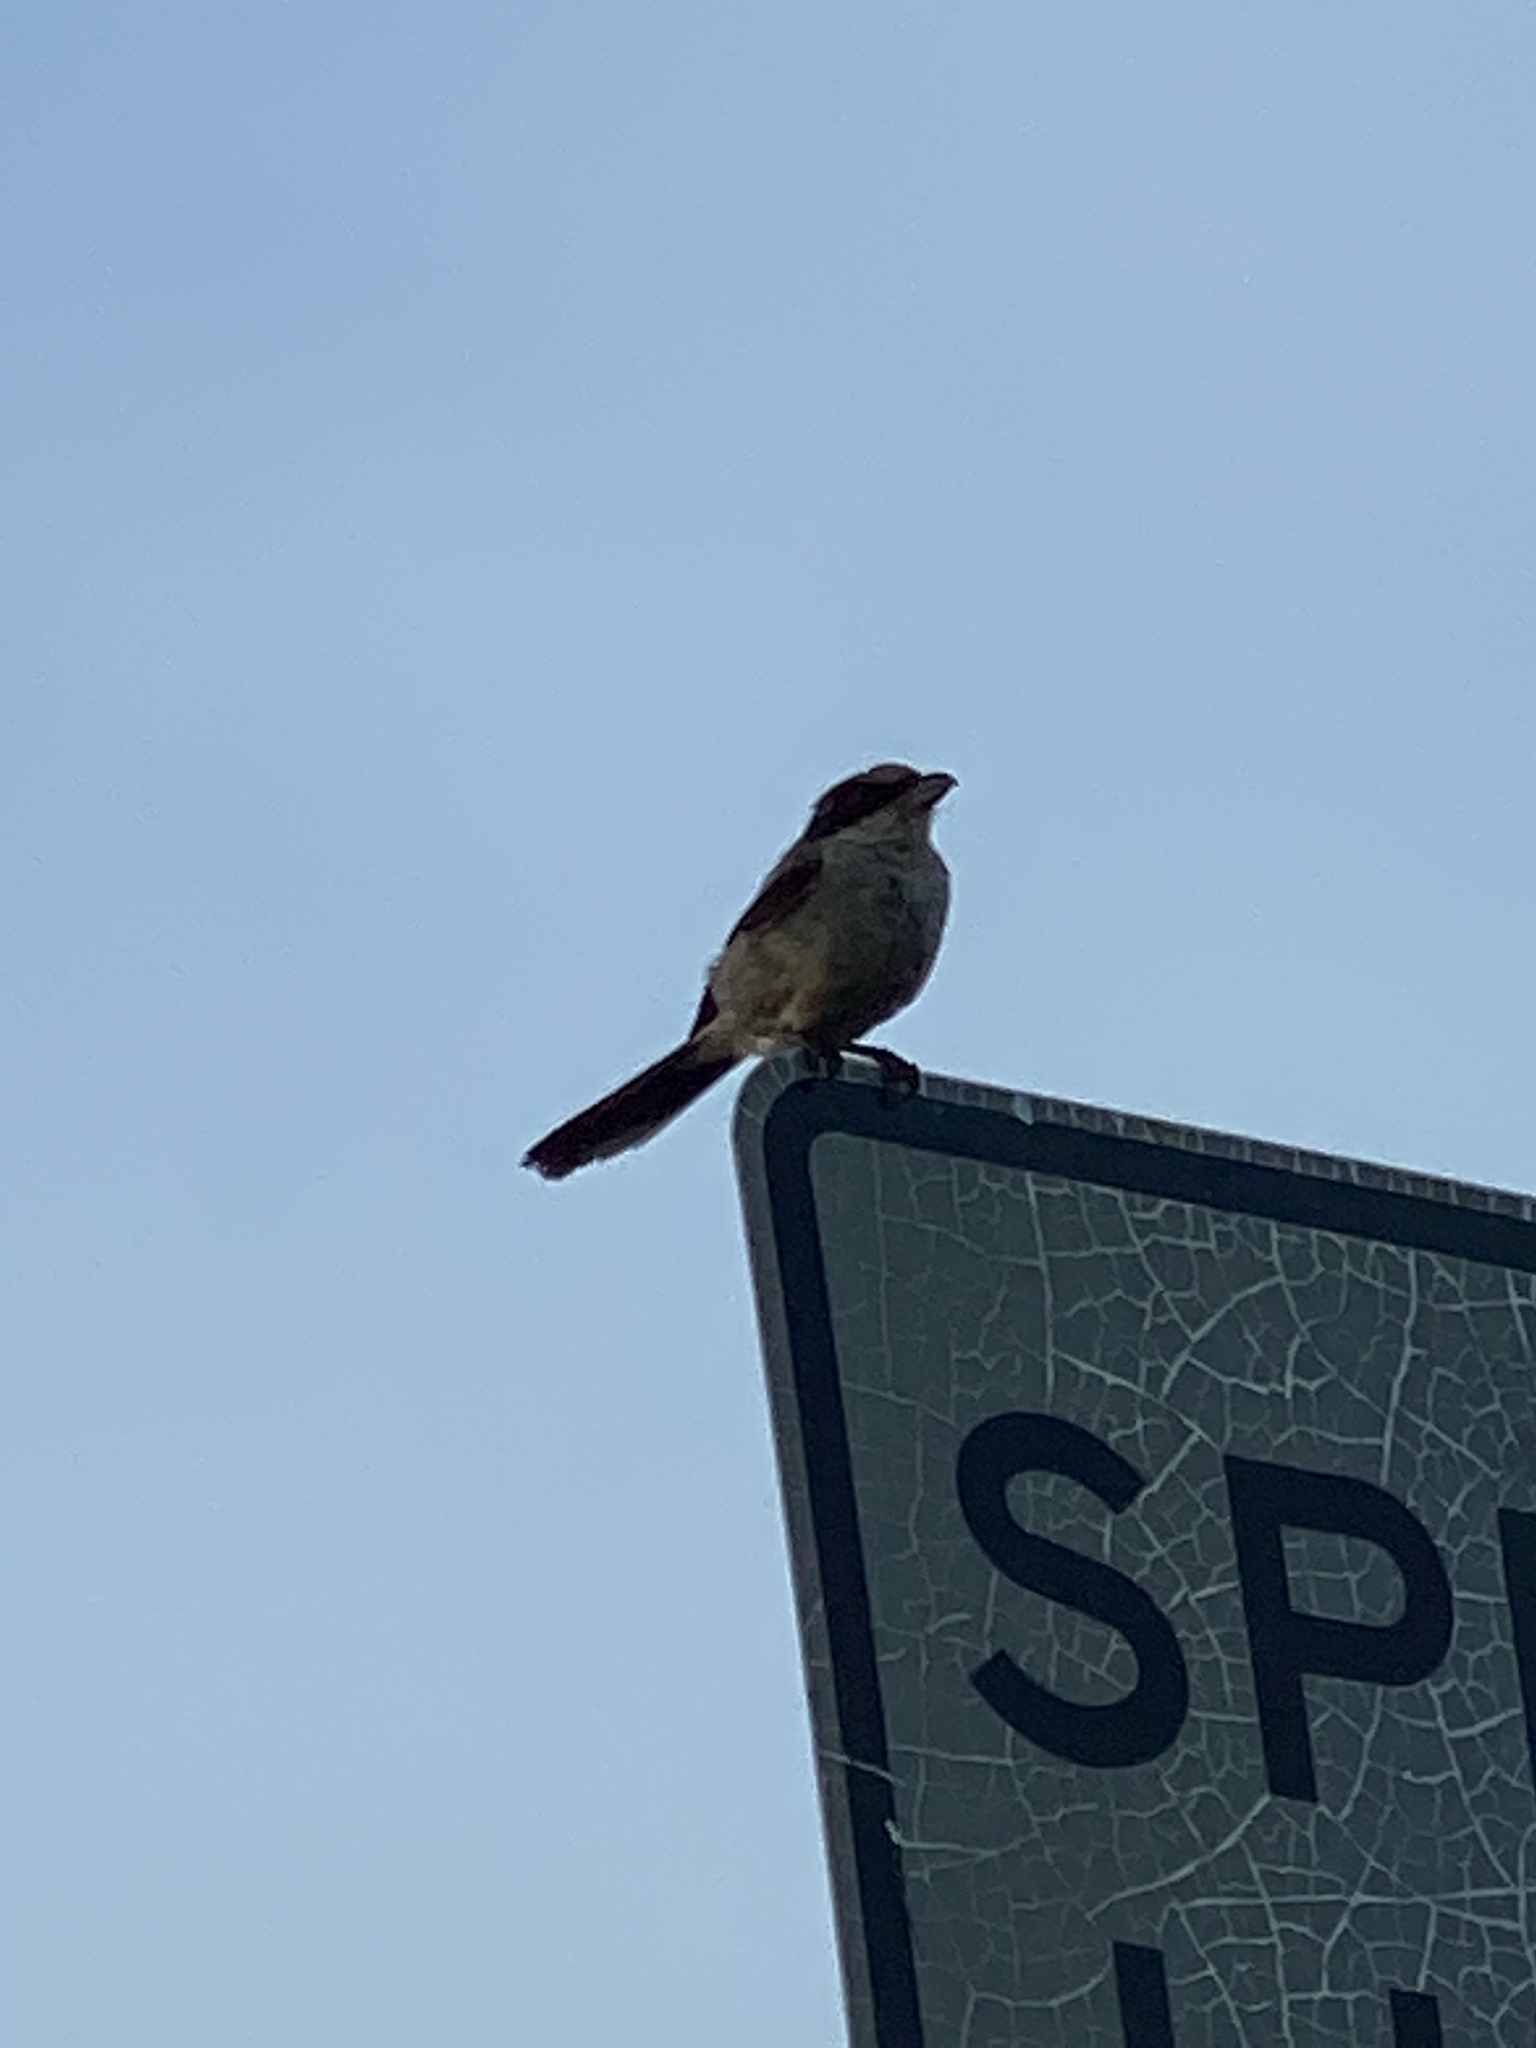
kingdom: Animalia
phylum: Chordata
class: Aves
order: Passeriformes
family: Laniidae
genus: Lanius
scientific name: Lanius ludovicianus
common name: Loggerhead shrike
